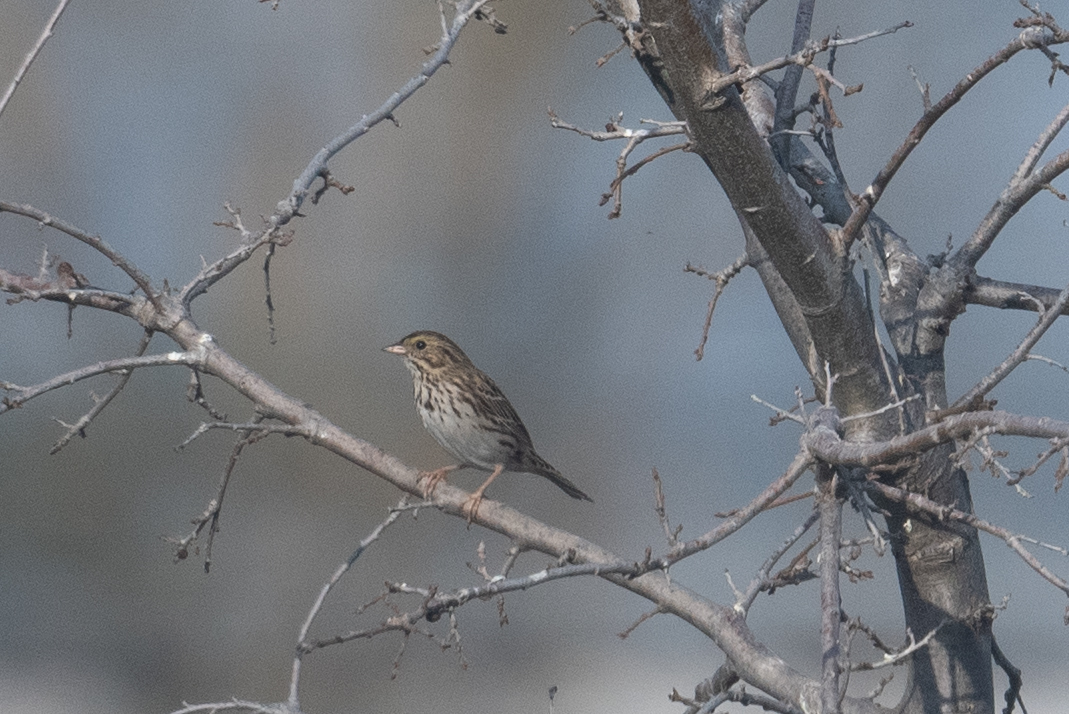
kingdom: Animalia
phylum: Chordata
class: Aves
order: Passeriformes
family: Passerellidae
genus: Passerculus
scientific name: Passerculus sandwichensis
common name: Savannah sparrow
